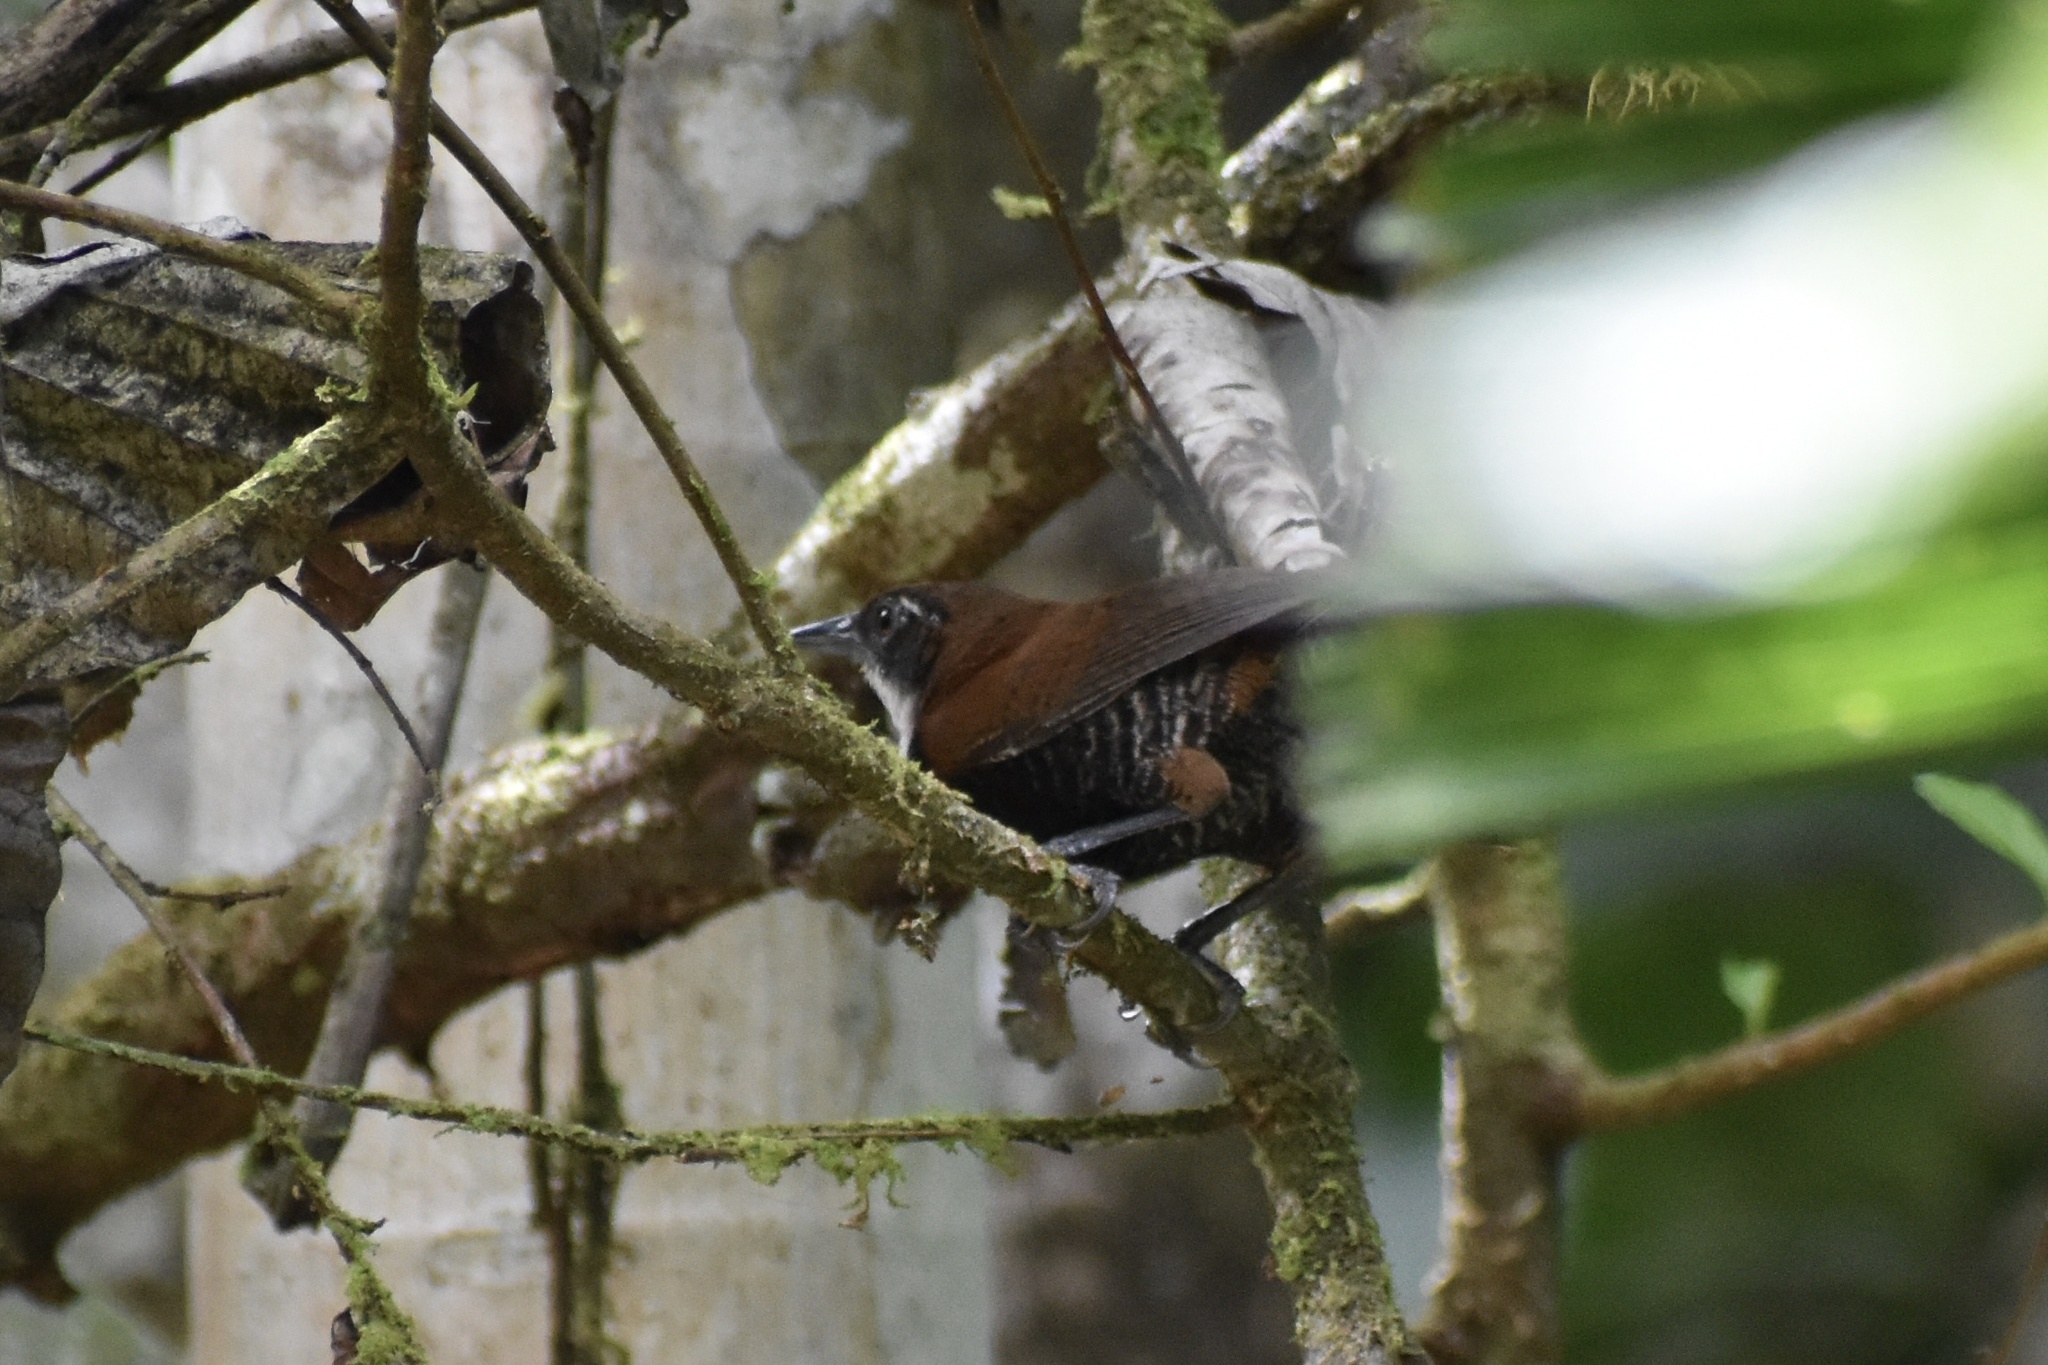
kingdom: Animalia
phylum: Chordata
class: Aves
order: Passeriformes
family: Troglodytidae
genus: Pheugopedius
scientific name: Pheugopedius fasciatoventris
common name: Black-bellied wren
